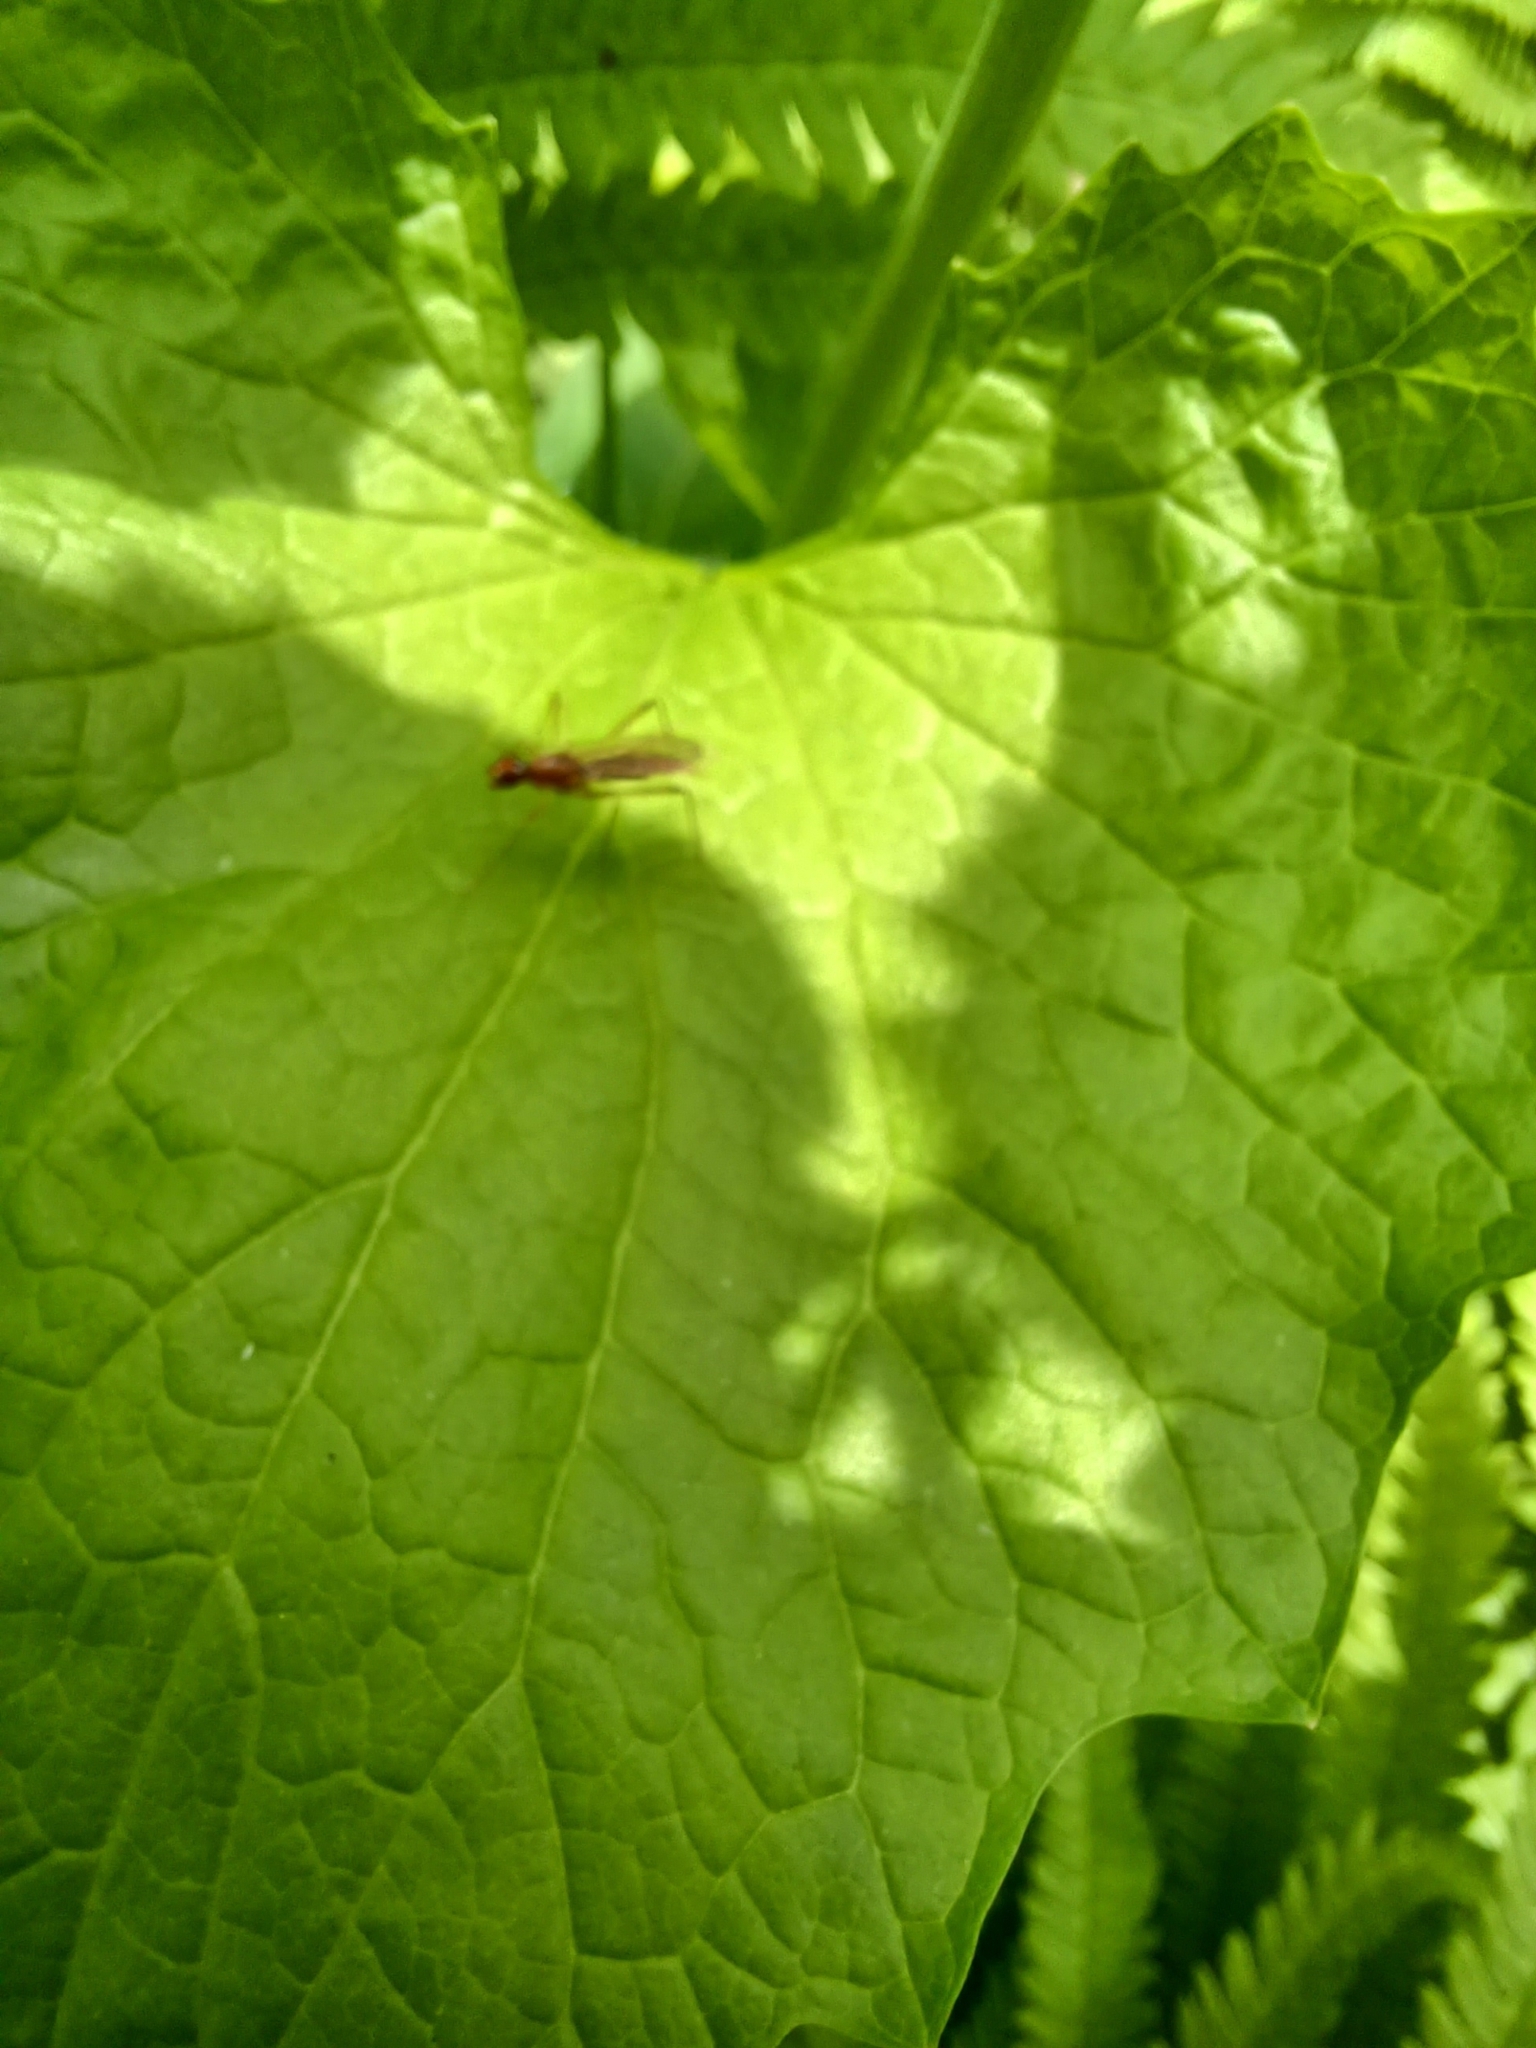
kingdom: Animalia
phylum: Arthropoda
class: Insecta
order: Diptera
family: Micropezidae
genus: Compsobata
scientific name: Compsobata univitta
